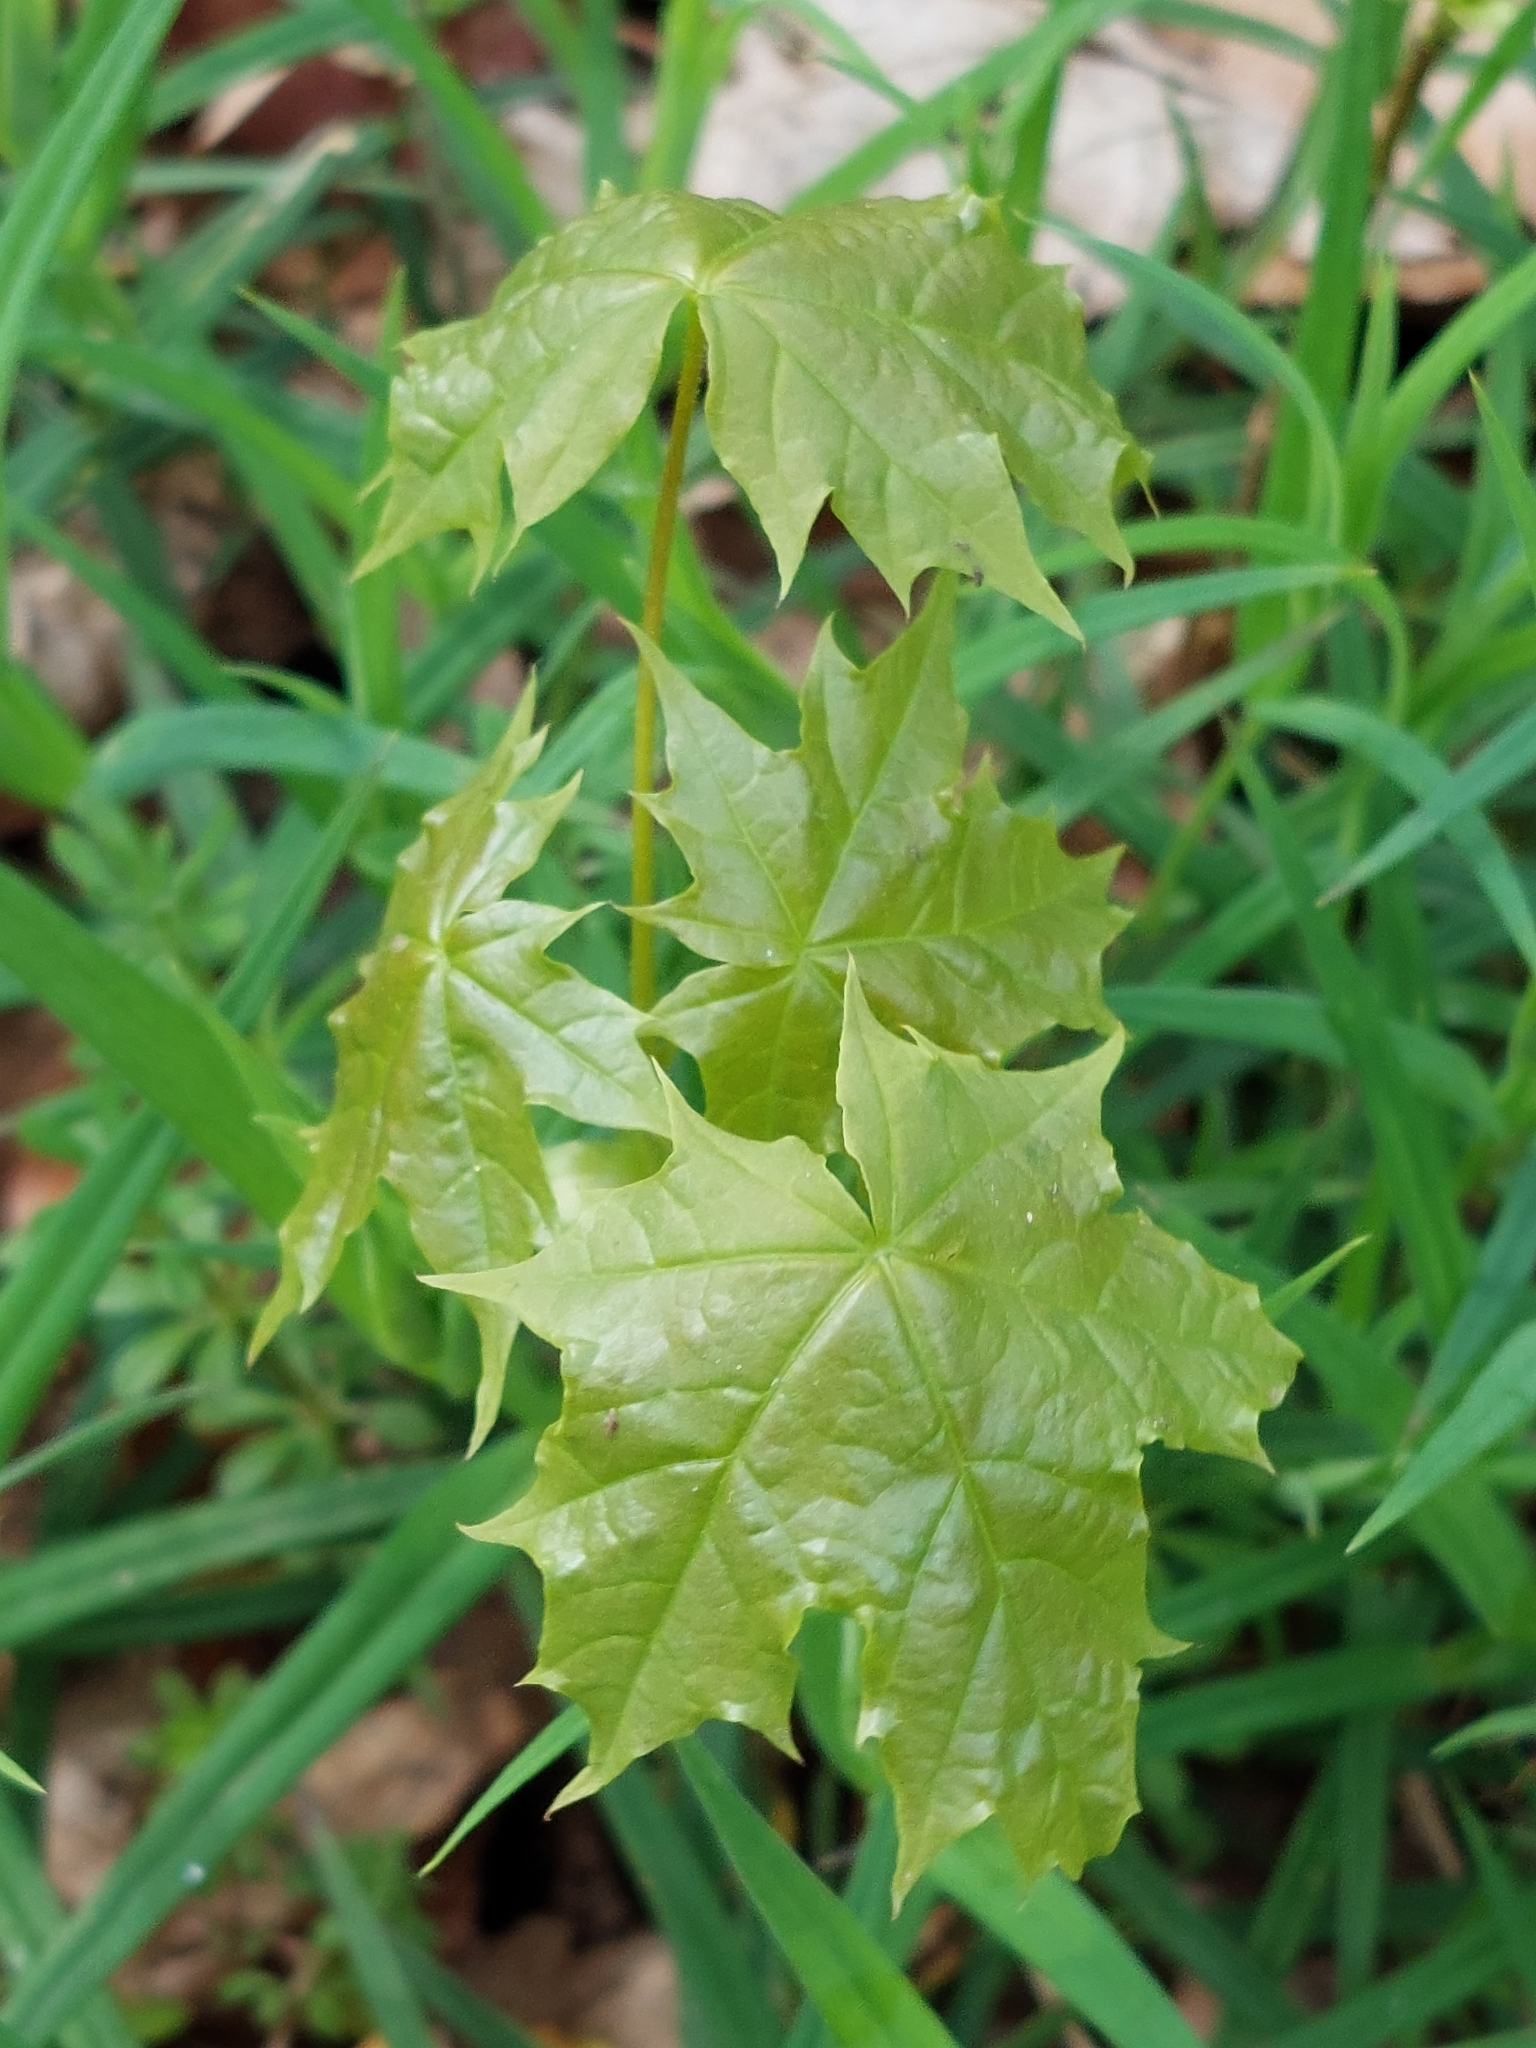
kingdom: Plantae
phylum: Tracheophyta
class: Magnoliopsida
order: Sapindales
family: Sapindaceae
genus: Acer
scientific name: Acer platanoides
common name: Norway maple
